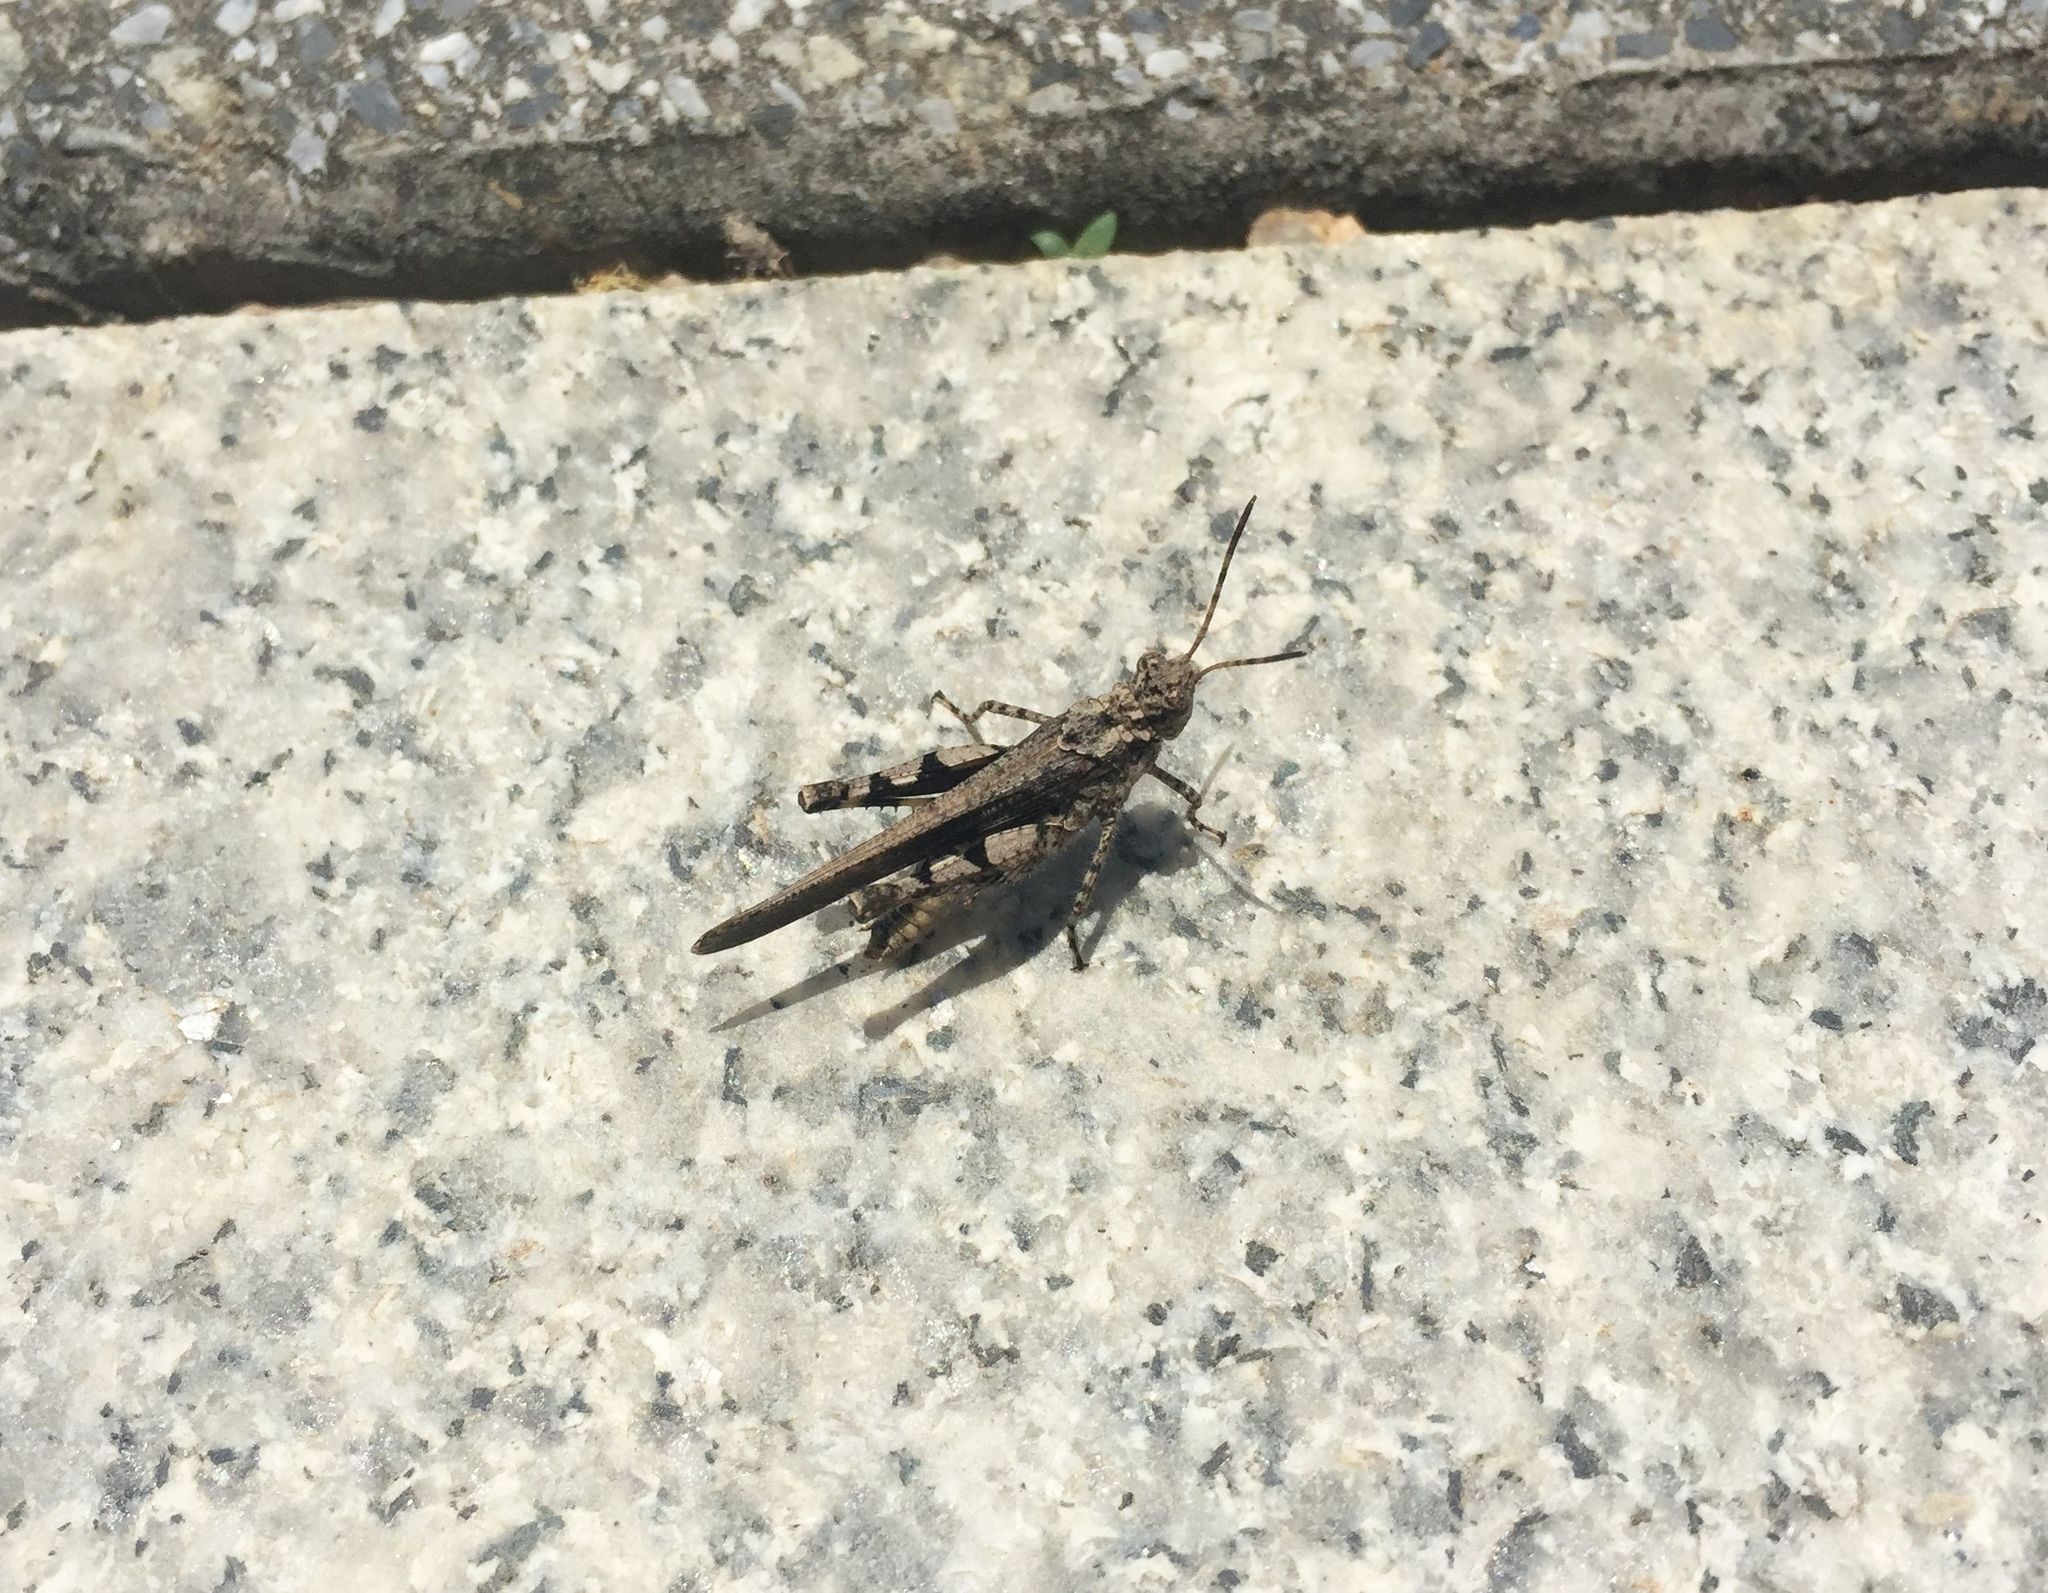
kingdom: Animalia
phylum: Arthropoda
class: Insecta
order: Orthoptera
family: Acrididae
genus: Trilophidia
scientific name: Trilophidia annulata
